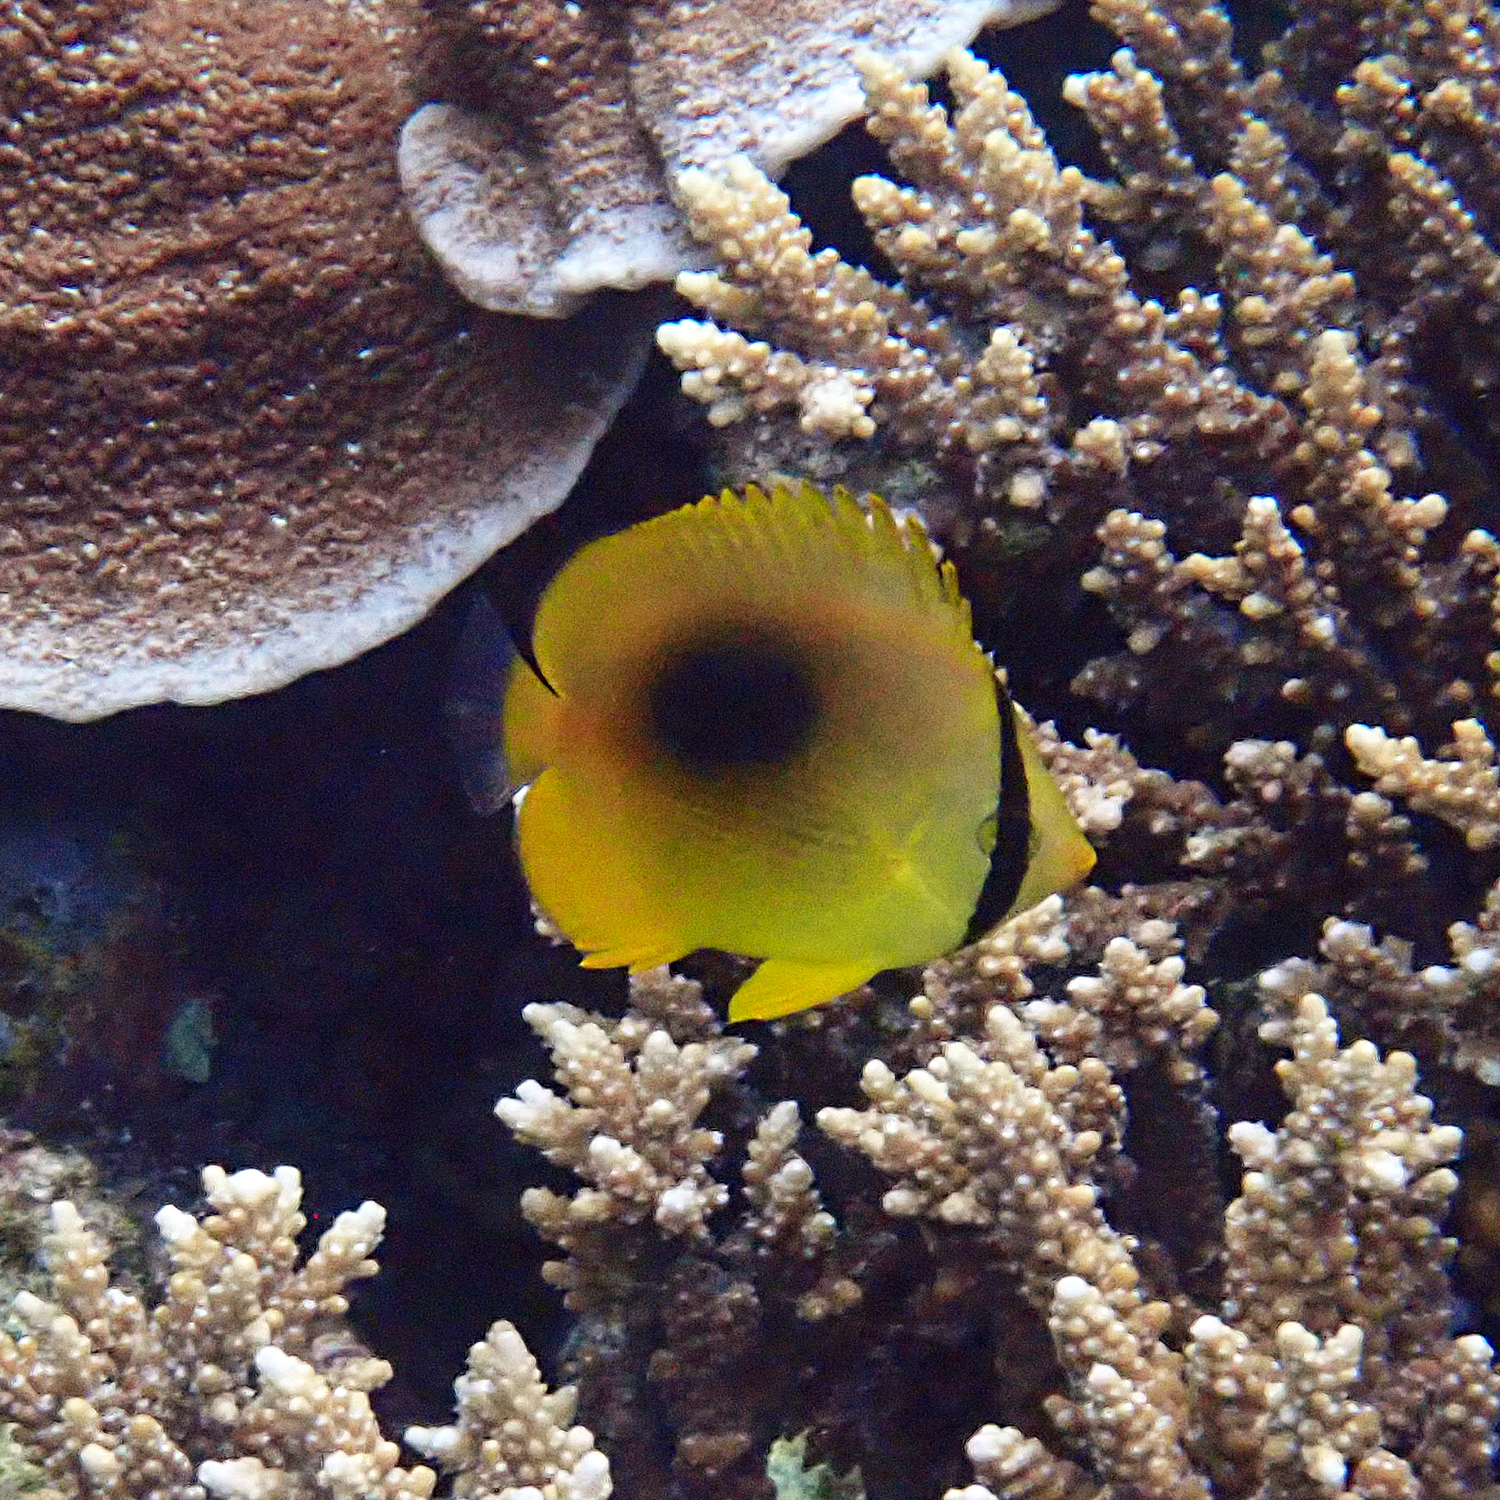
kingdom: Animalia
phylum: Chordata
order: Perciformes
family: Chaetodontidae
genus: Chaetodon
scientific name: Chaetodon speculum
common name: Mirror butterflyfish
